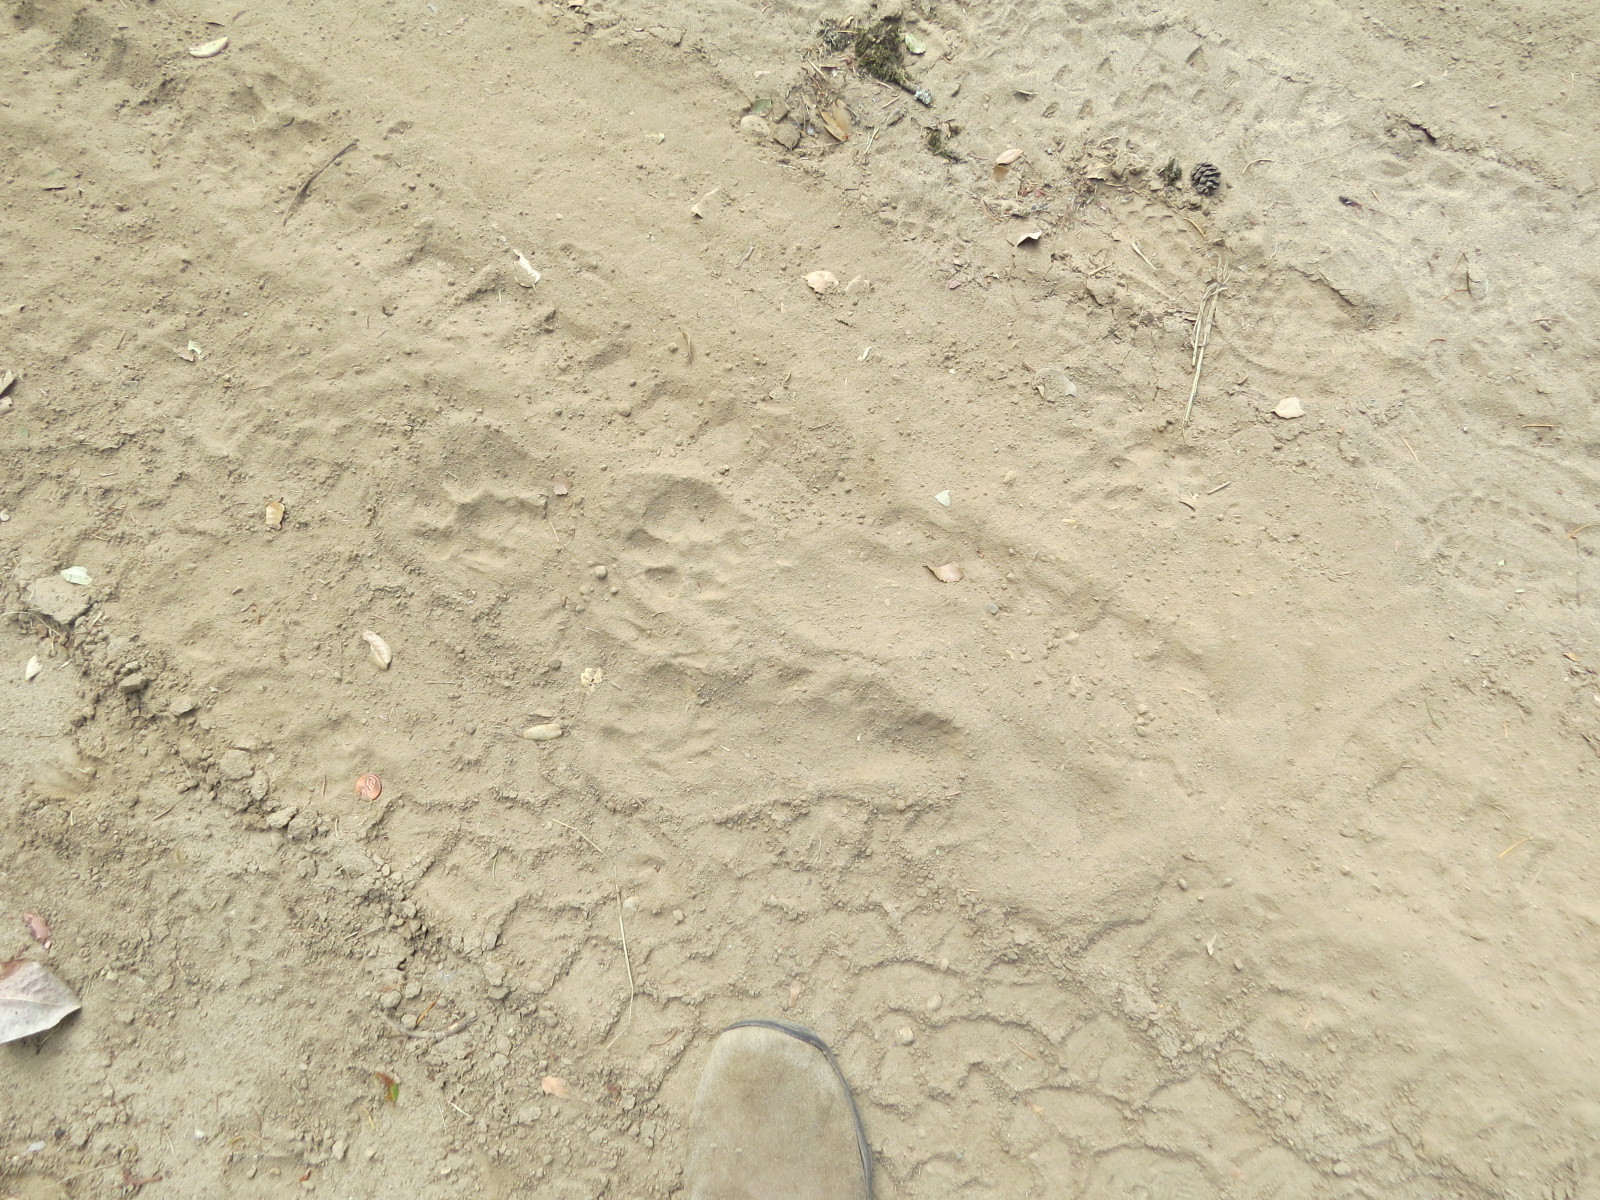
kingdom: Animalia
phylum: Chordata
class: Mammalia
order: Carnivora
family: Felidae
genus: Puma
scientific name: Puma concolor
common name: Puma
